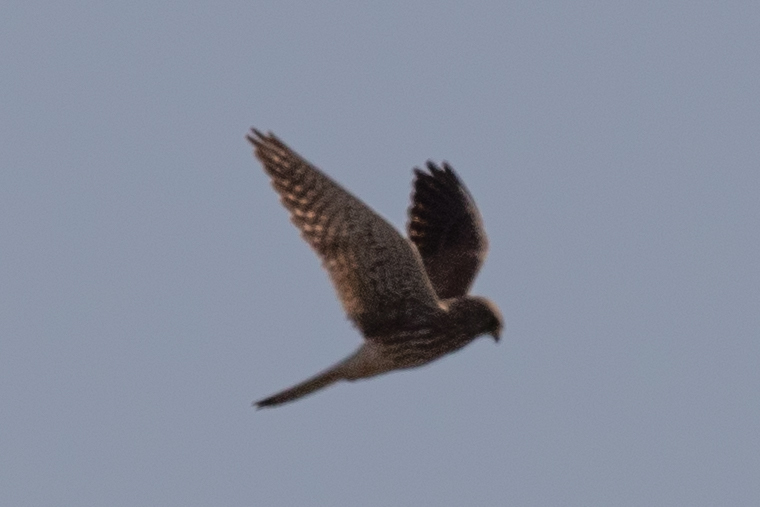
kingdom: Animalia
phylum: Chordata
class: Aves
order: Falconiformes
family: Falconidae
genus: Falco
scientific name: Falco tinnunculus
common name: Common kestrel
